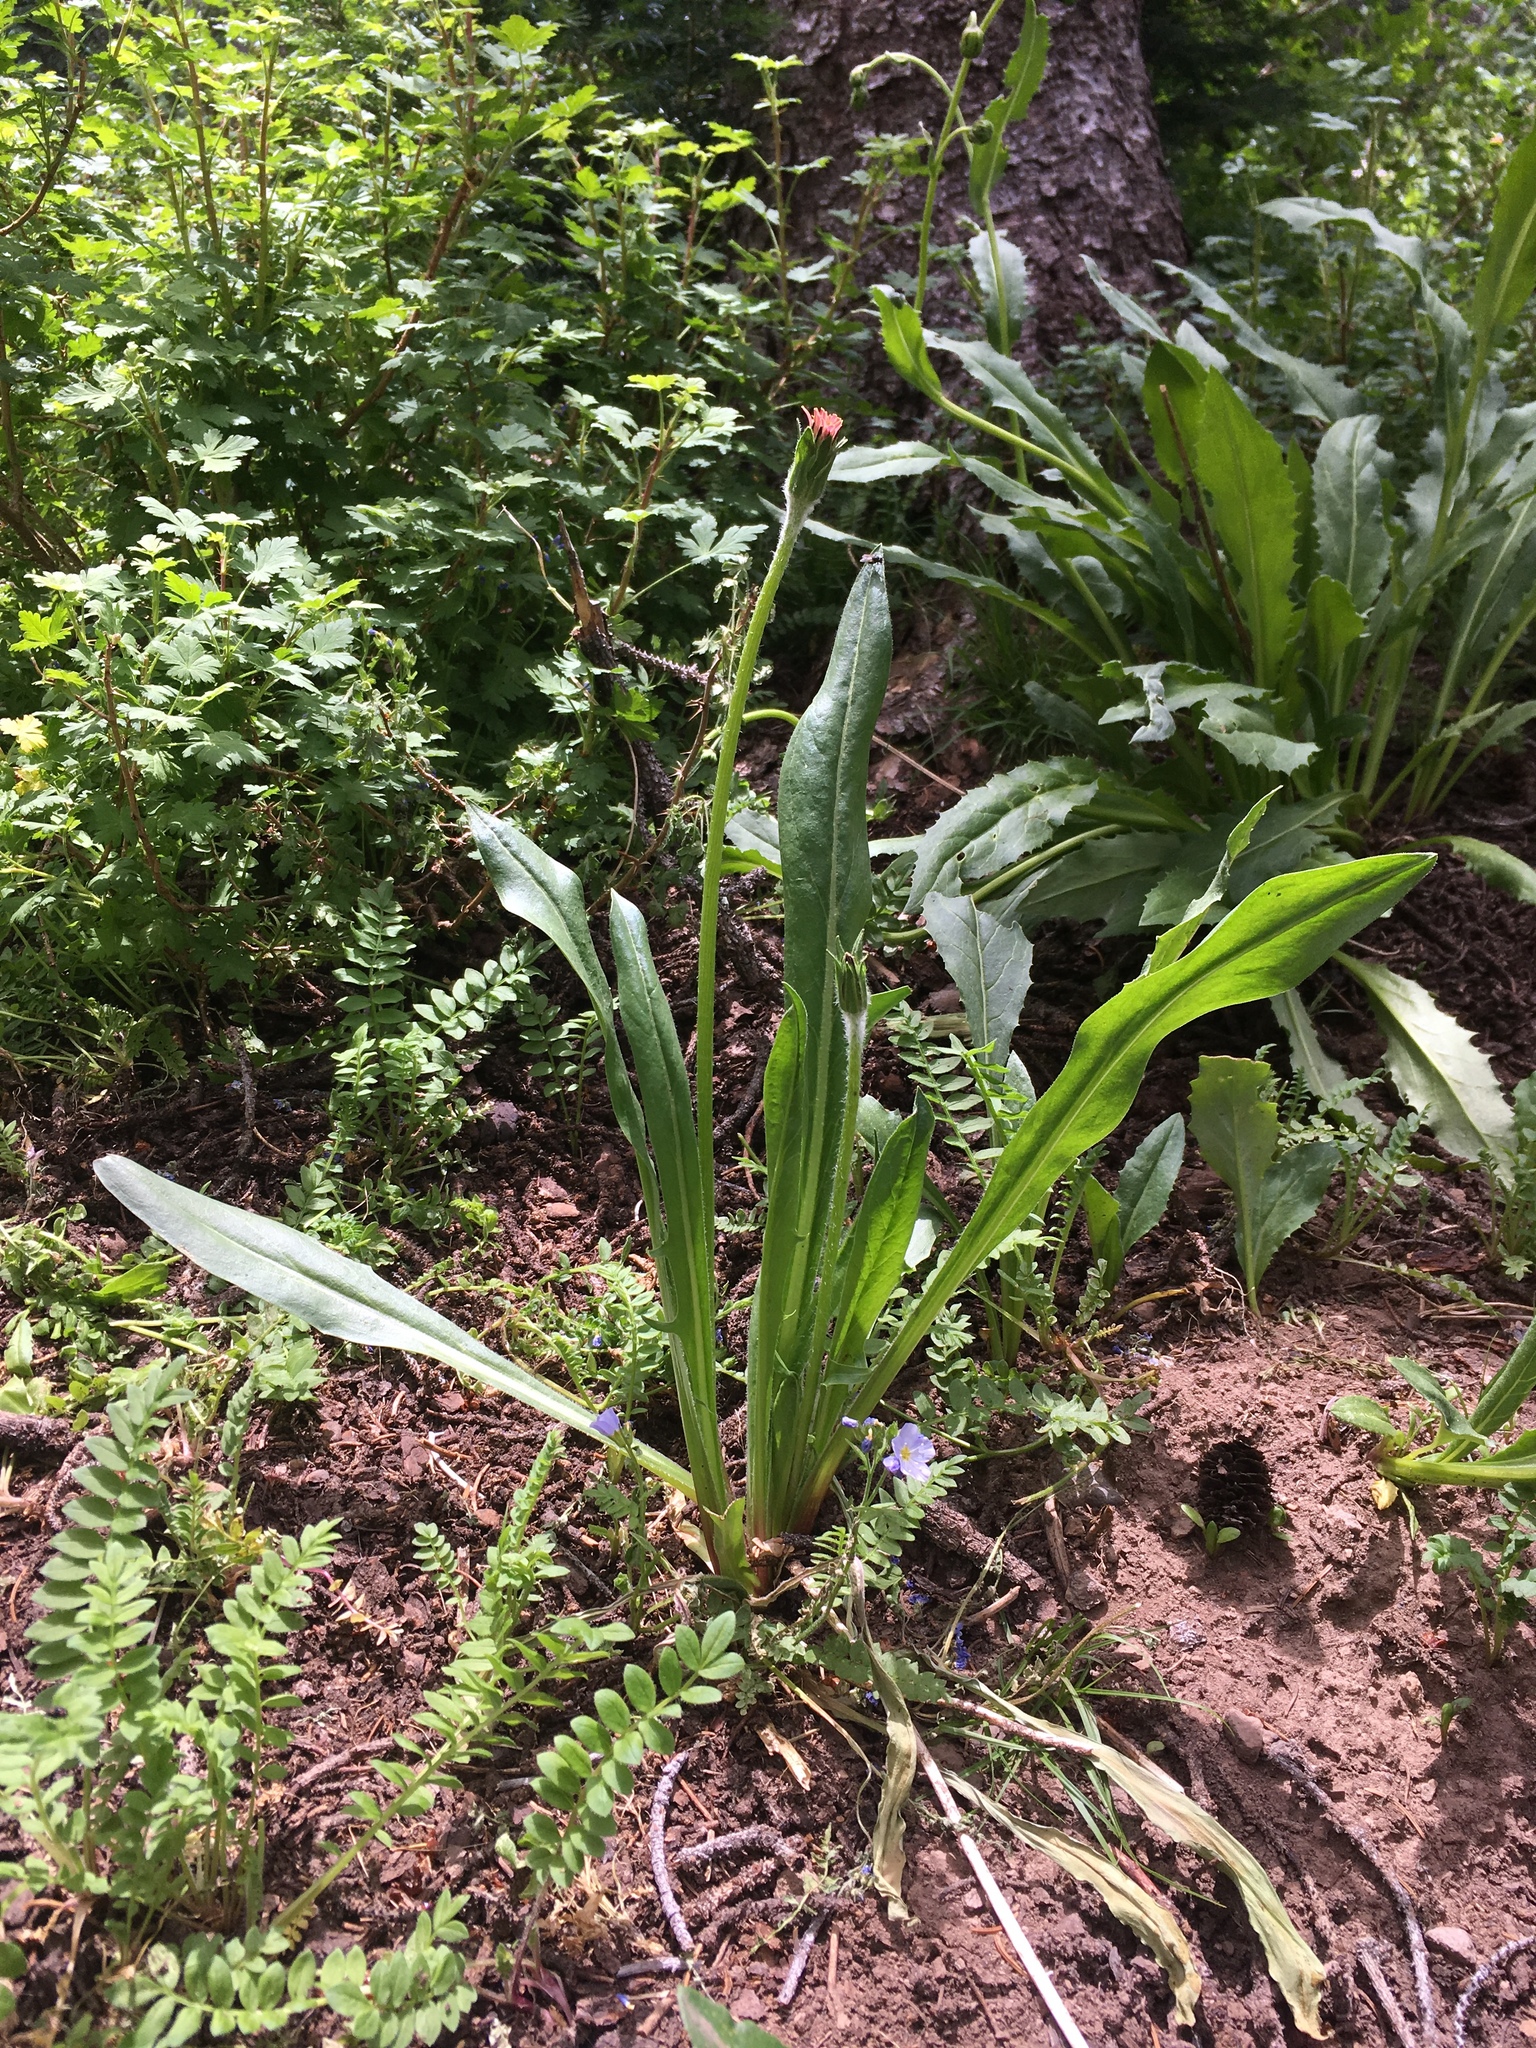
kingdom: Plantae
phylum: Tracheophyta
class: Magnoliopsida
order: Asterales
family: Asteraceae
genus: Agoseris
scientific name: Agoseris aurantiaca
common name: Mountain agoseris
